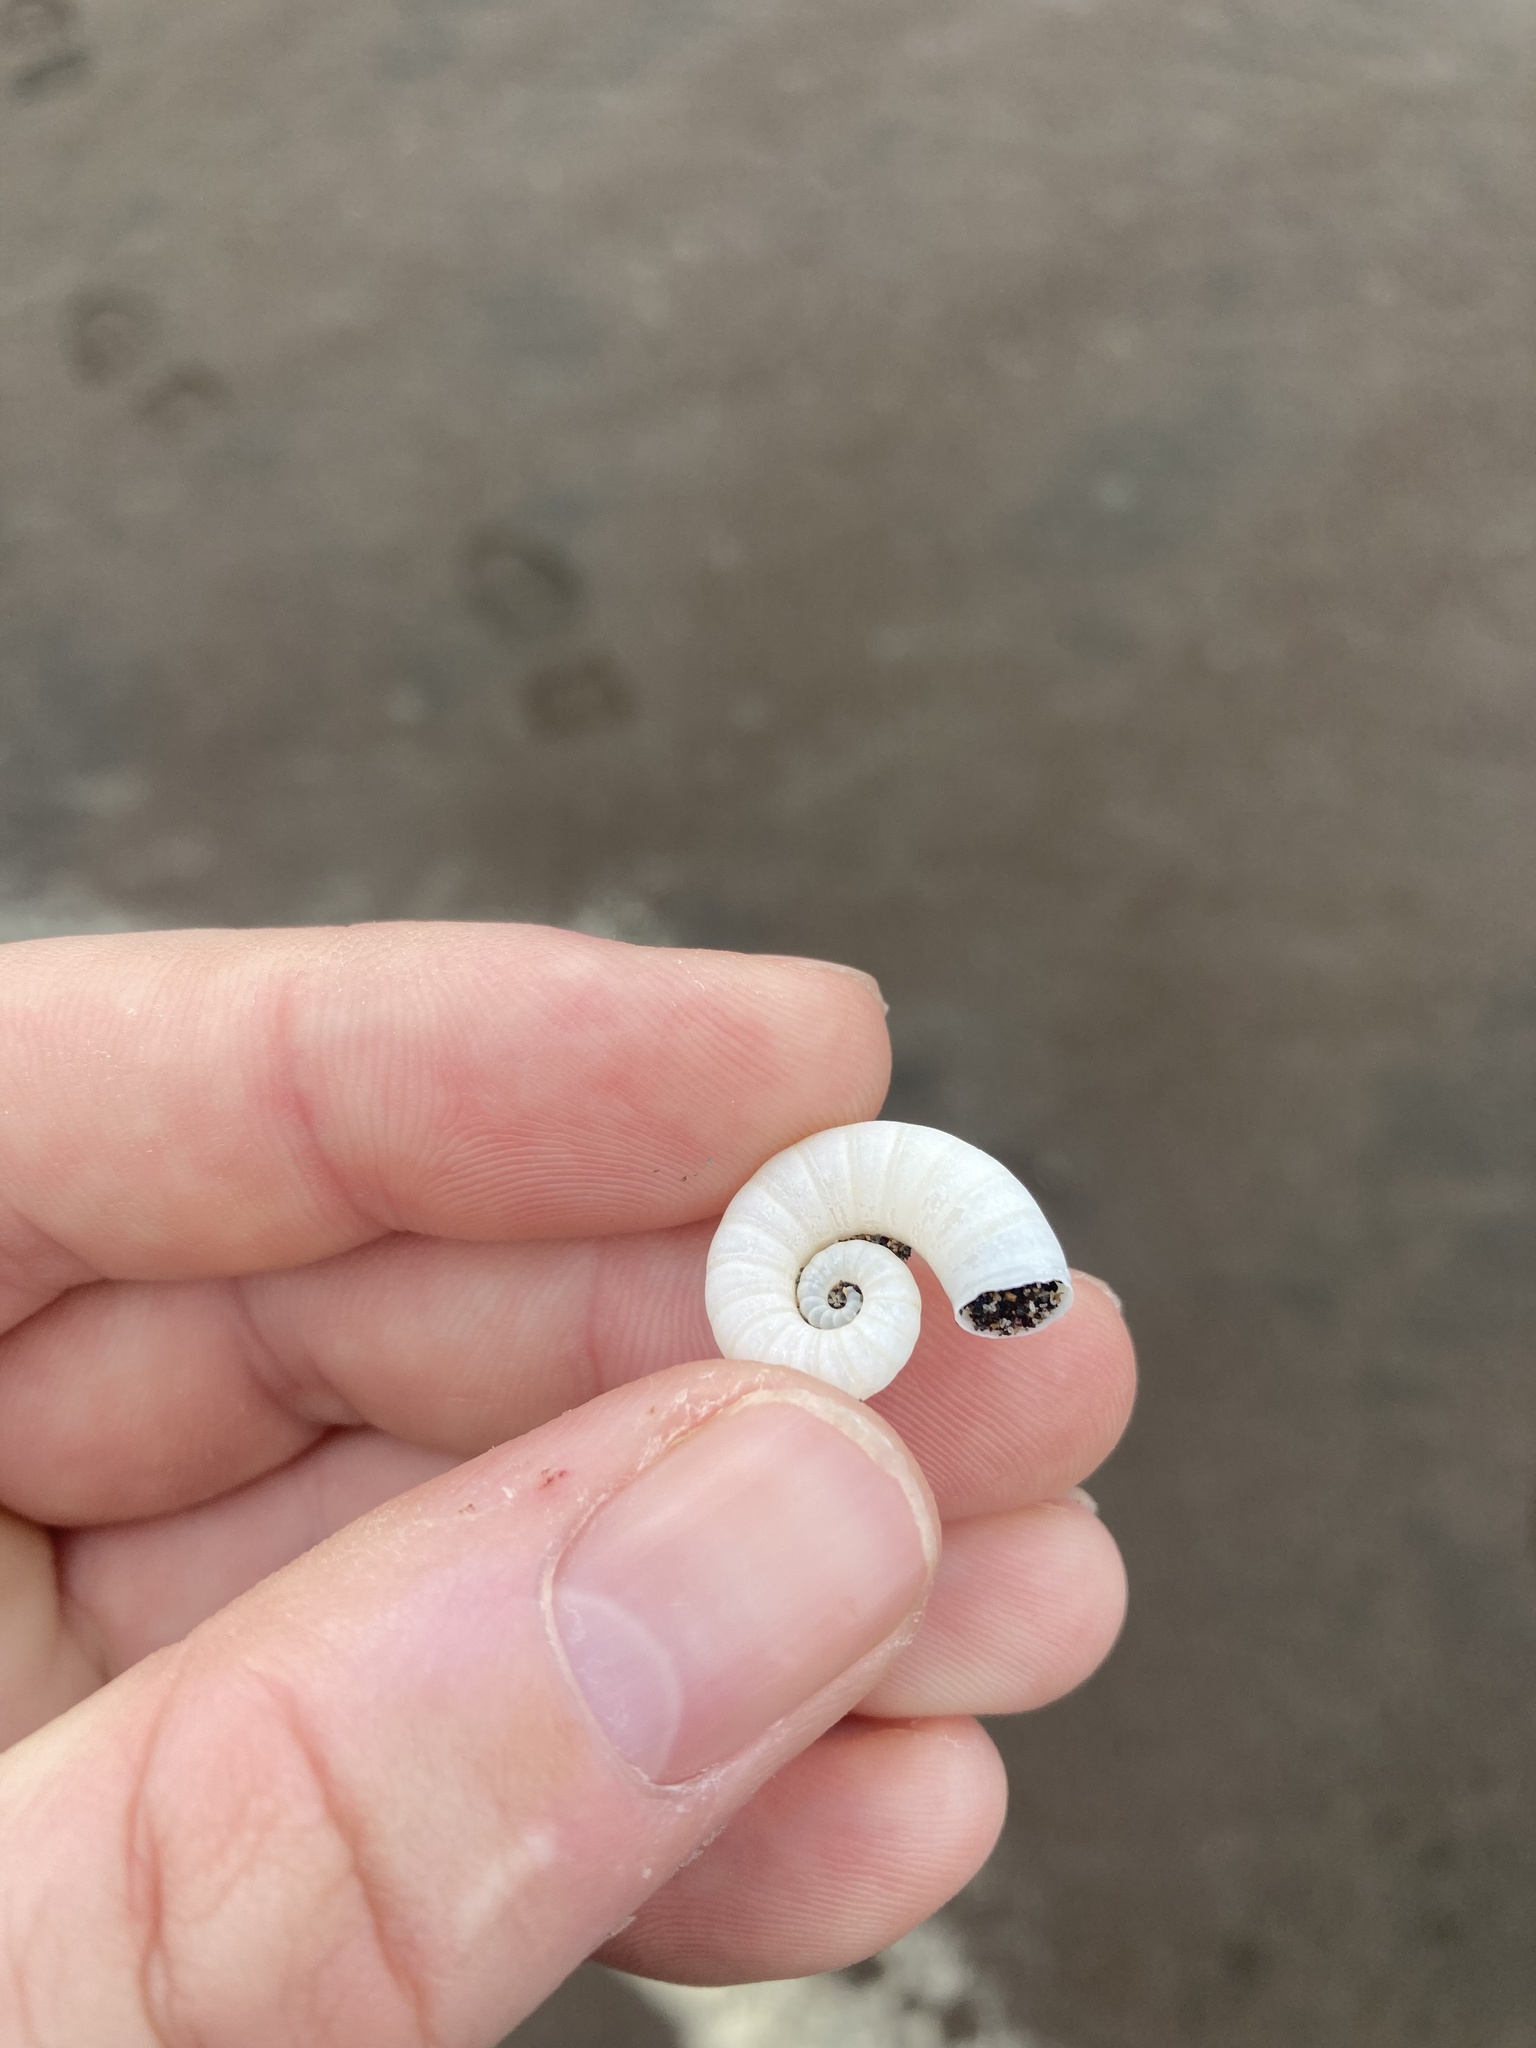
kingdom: Animalia
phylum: Mollusca
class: Cephalopoda
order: Spirulida
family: Spirulidae
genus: Spirula
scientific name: Spirula spirula
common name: Ram's horn squid
